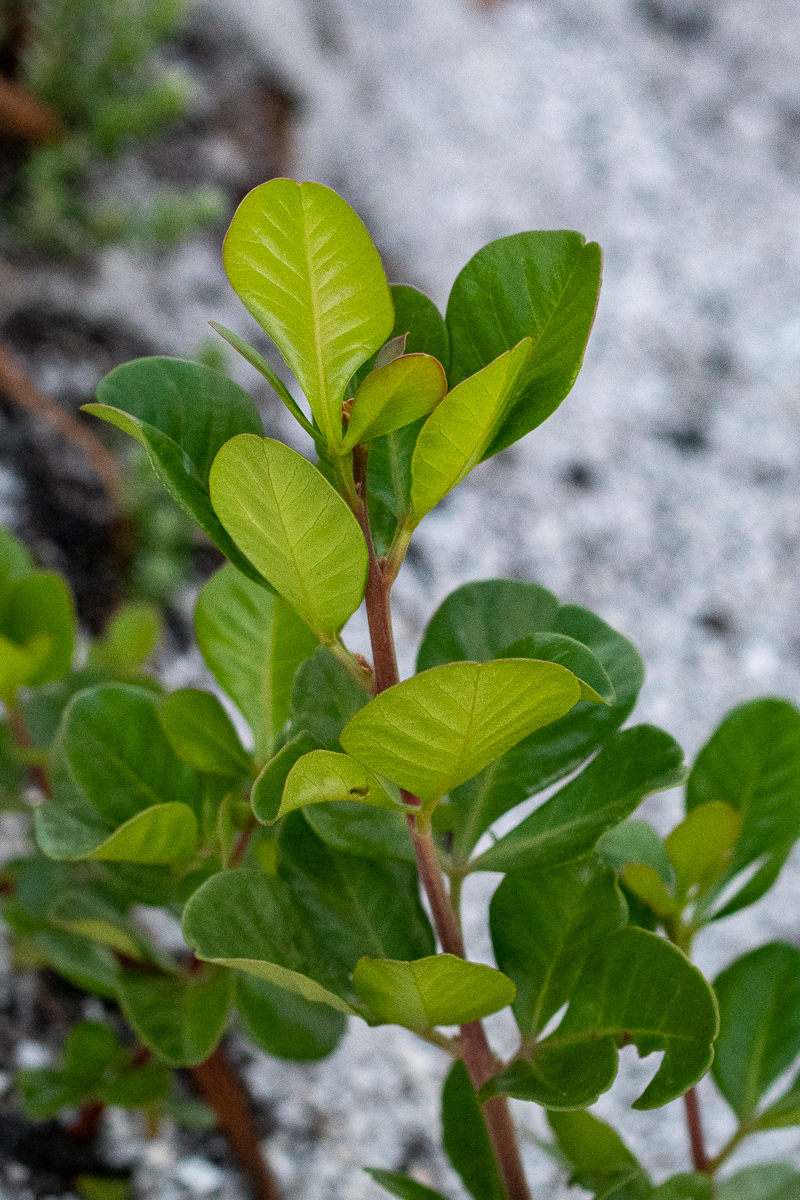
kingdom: Plantae
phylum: Tracheophyta
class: Magnoliopsida
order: Sapindales
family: Anacardiaceae
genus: Searsia
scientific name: Searsia lucida
